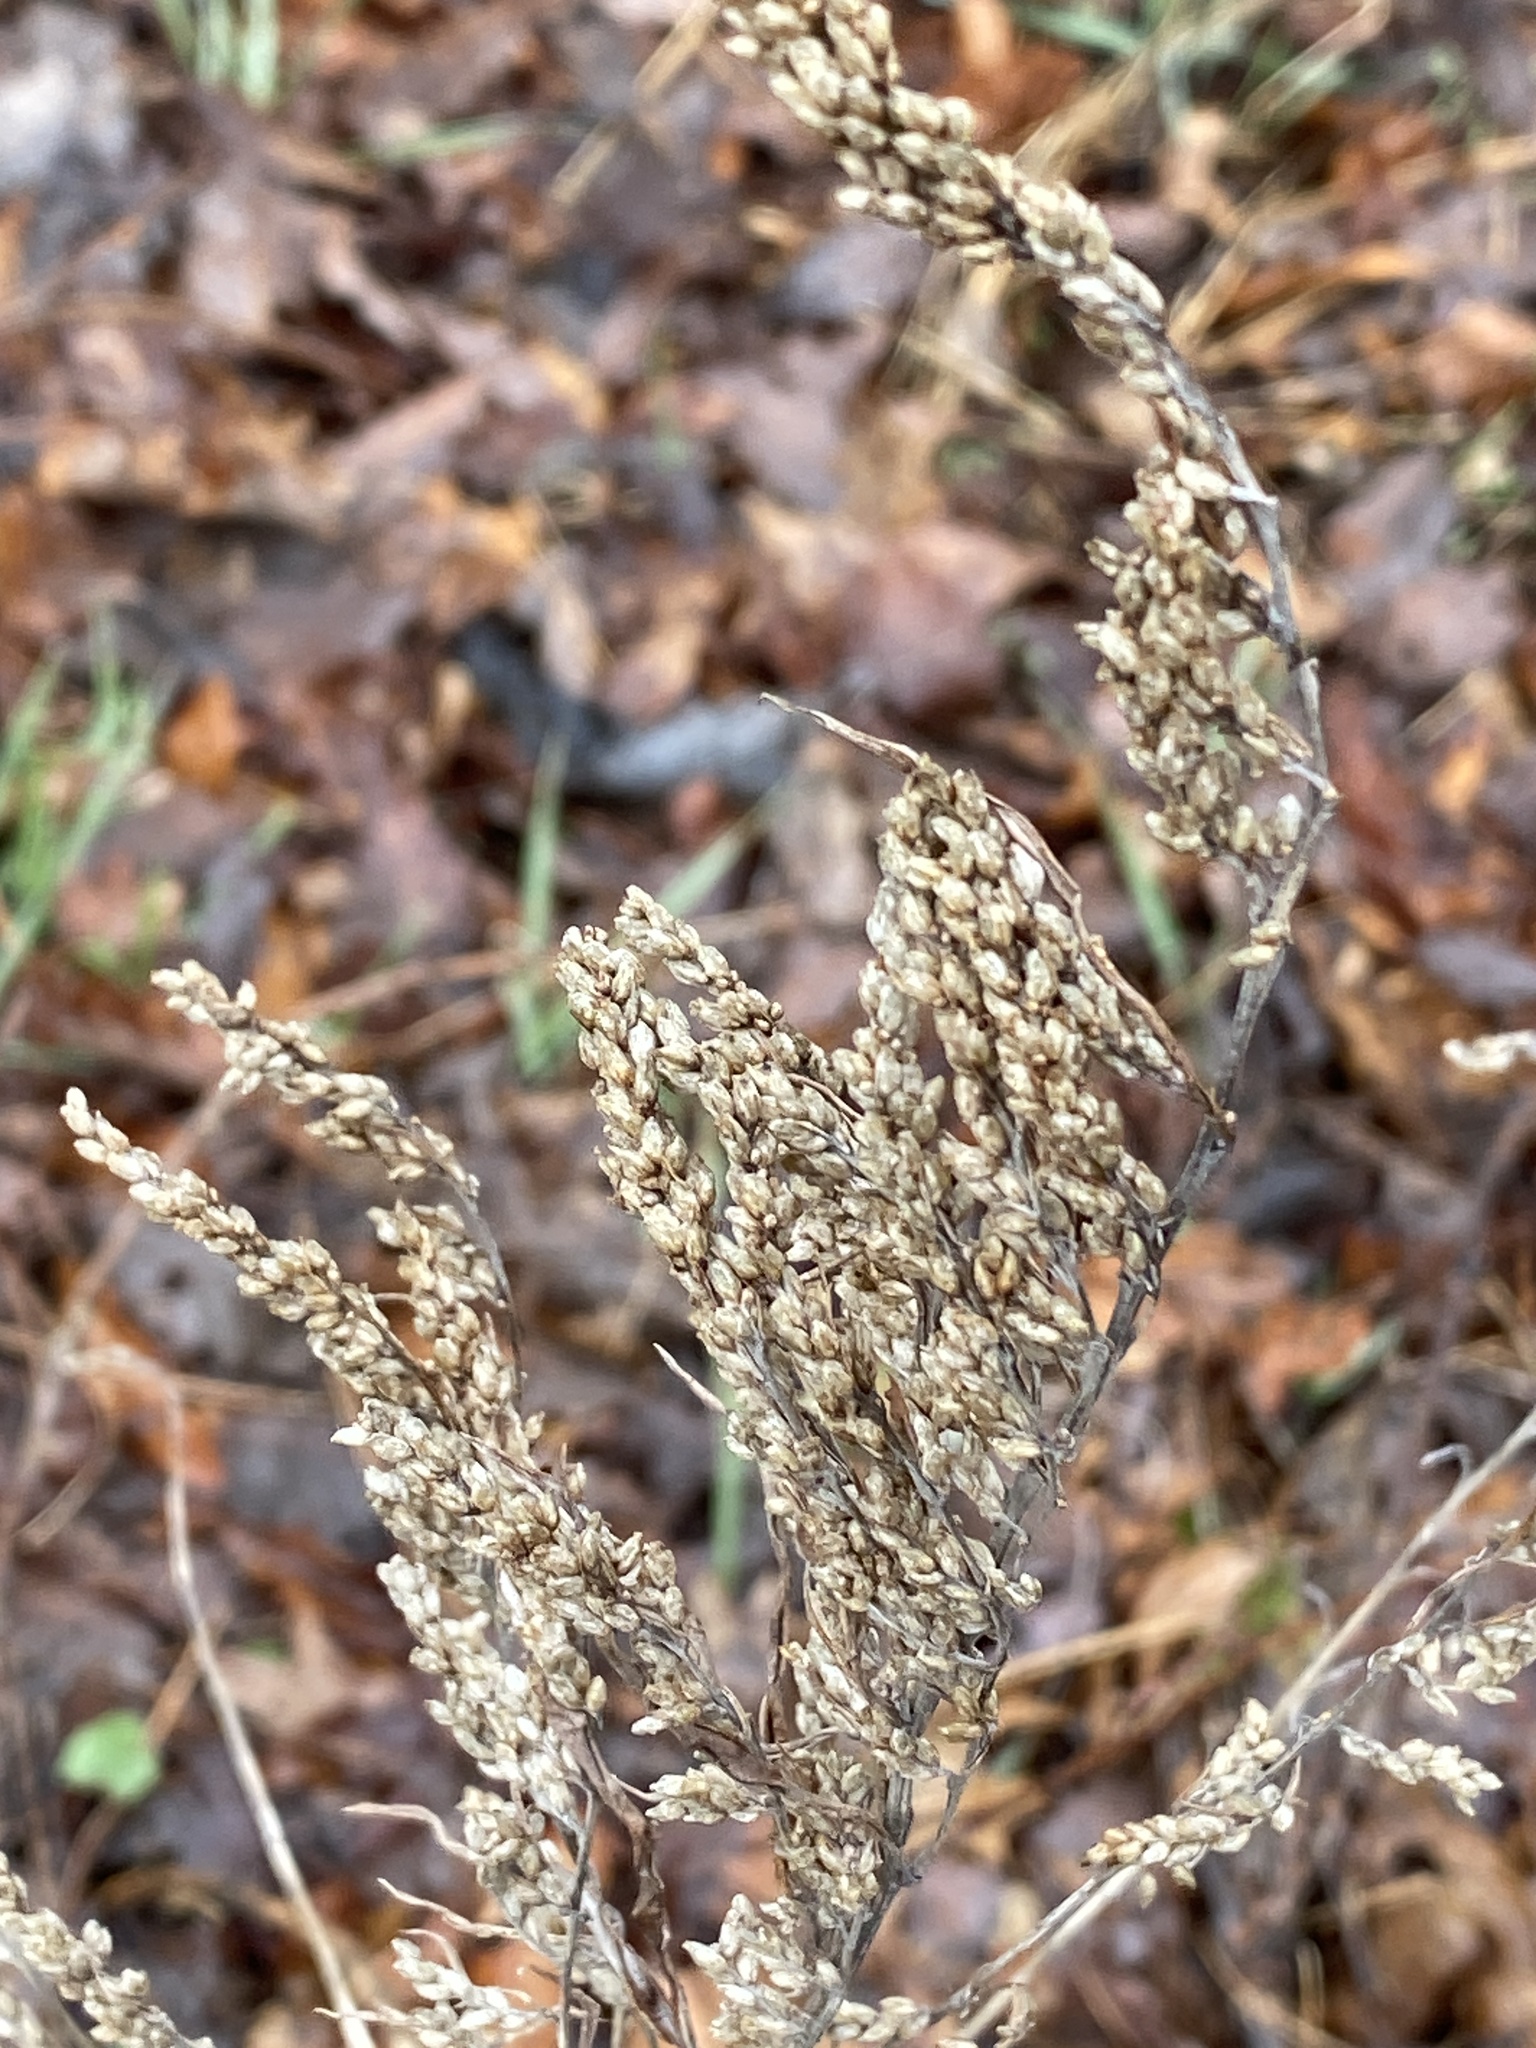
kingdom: Plantae
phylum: Tracheophyta
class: Magnoliopsida
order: Asterales
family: Asteraceae
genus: Artemisia
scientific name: Artemisia vulgaris
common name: Mugwort
